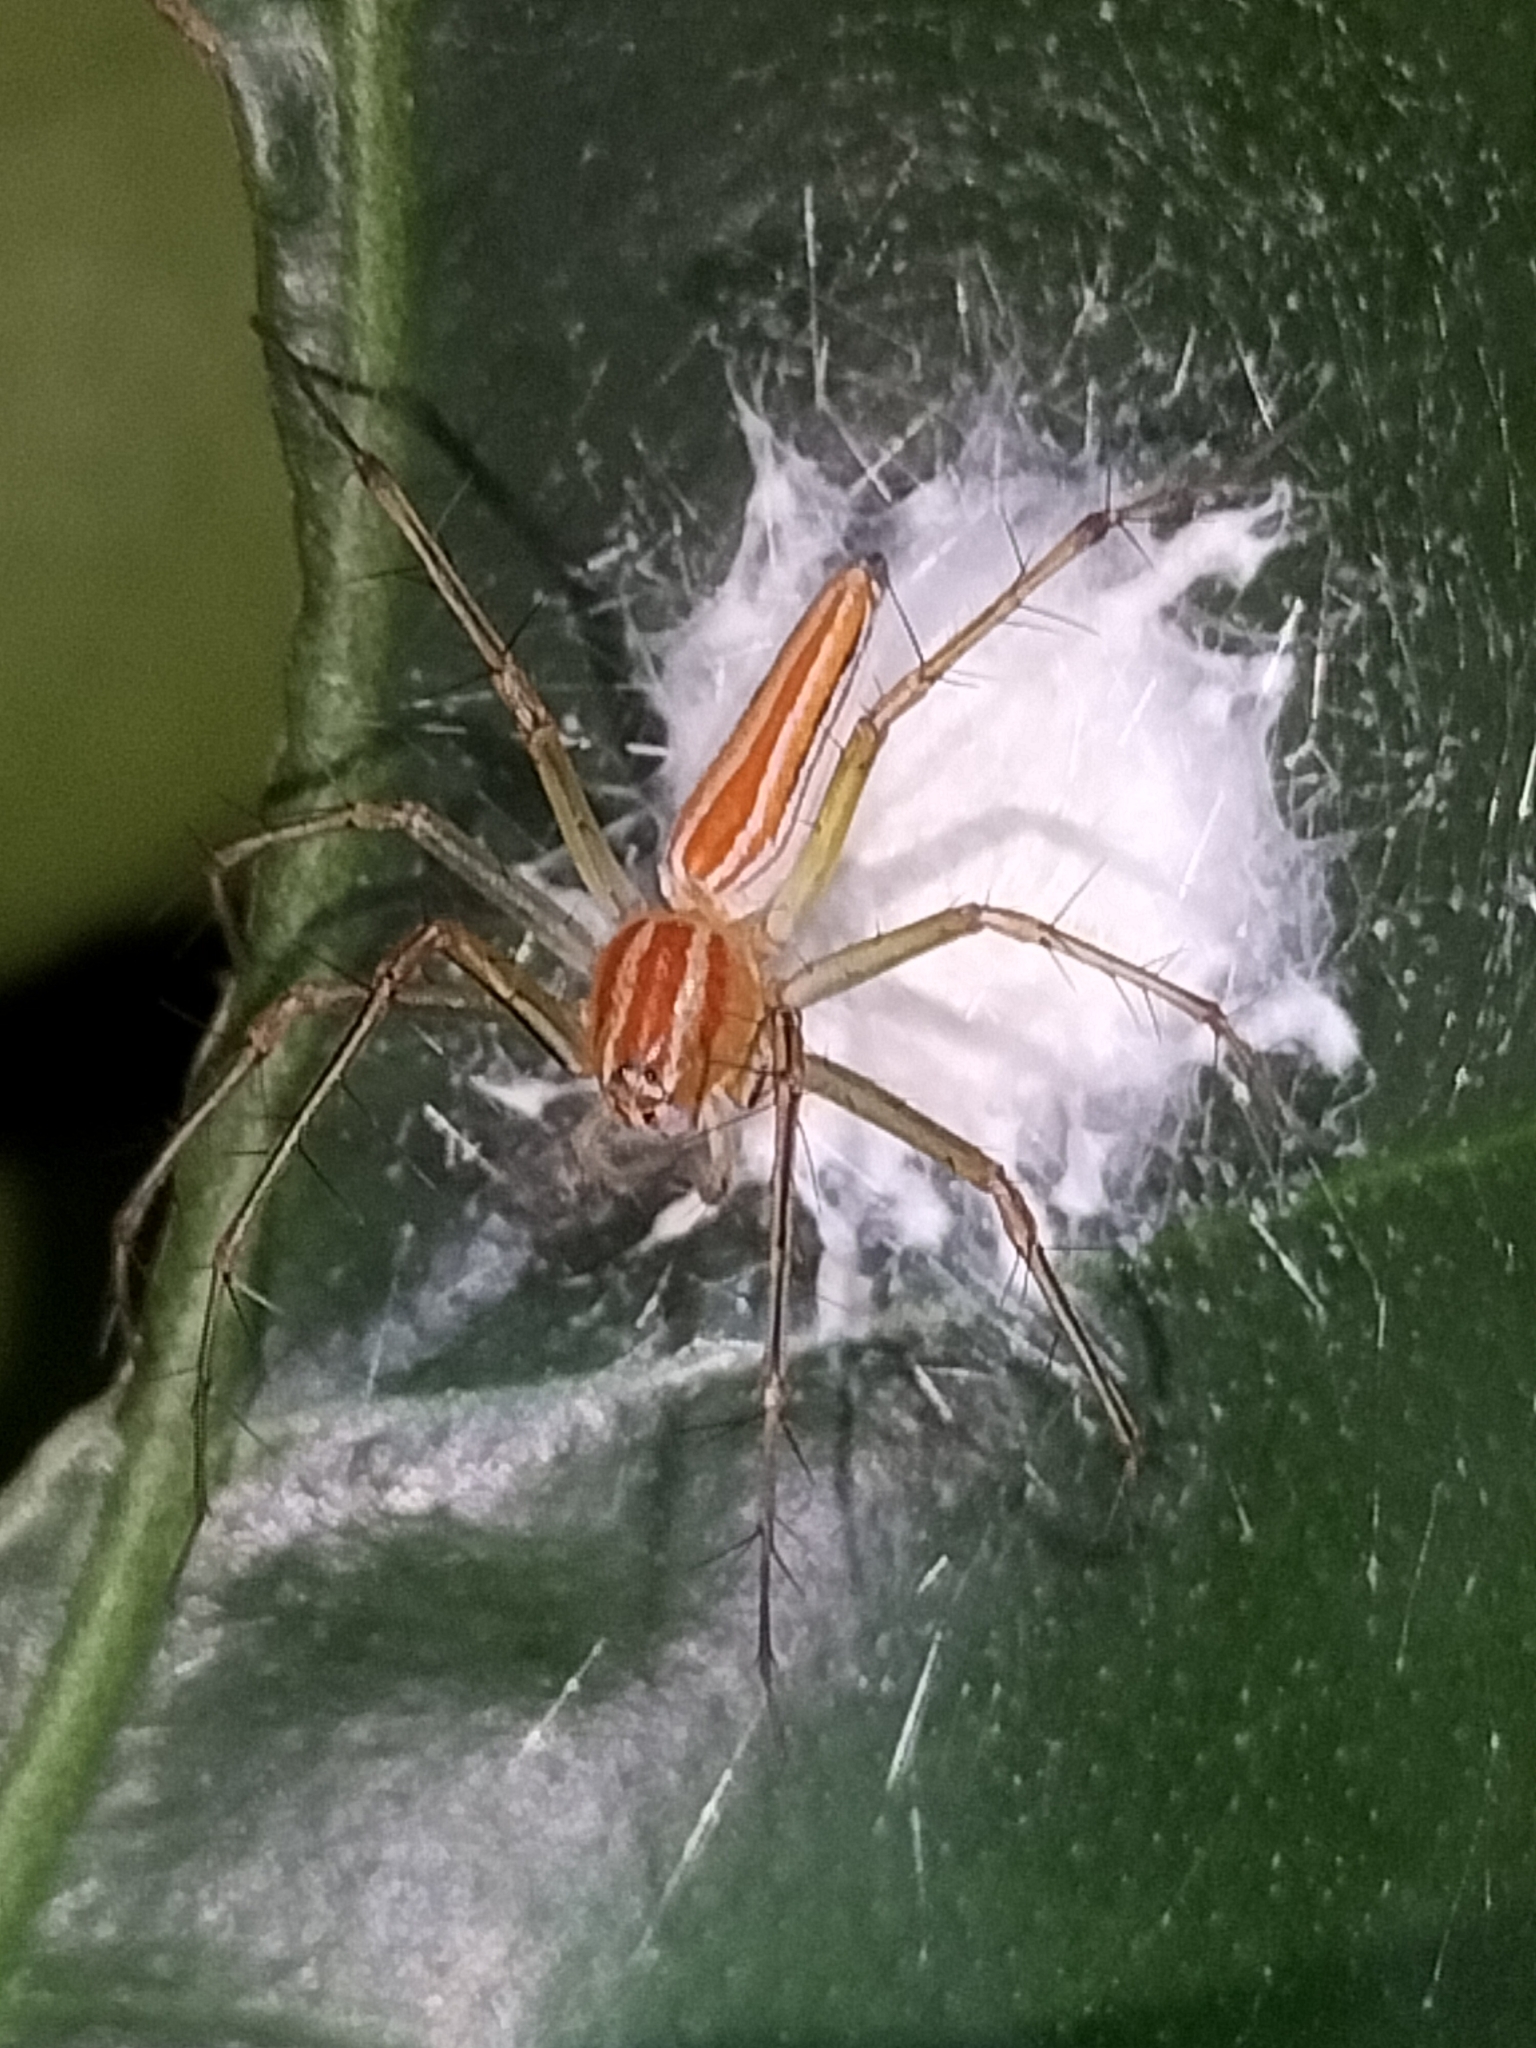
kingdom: Animalia
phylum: Arthropoda
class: Arachnida
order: Araneae
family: Oxyopidae
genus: Oxyopes
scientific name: Oxyopes macilentus
